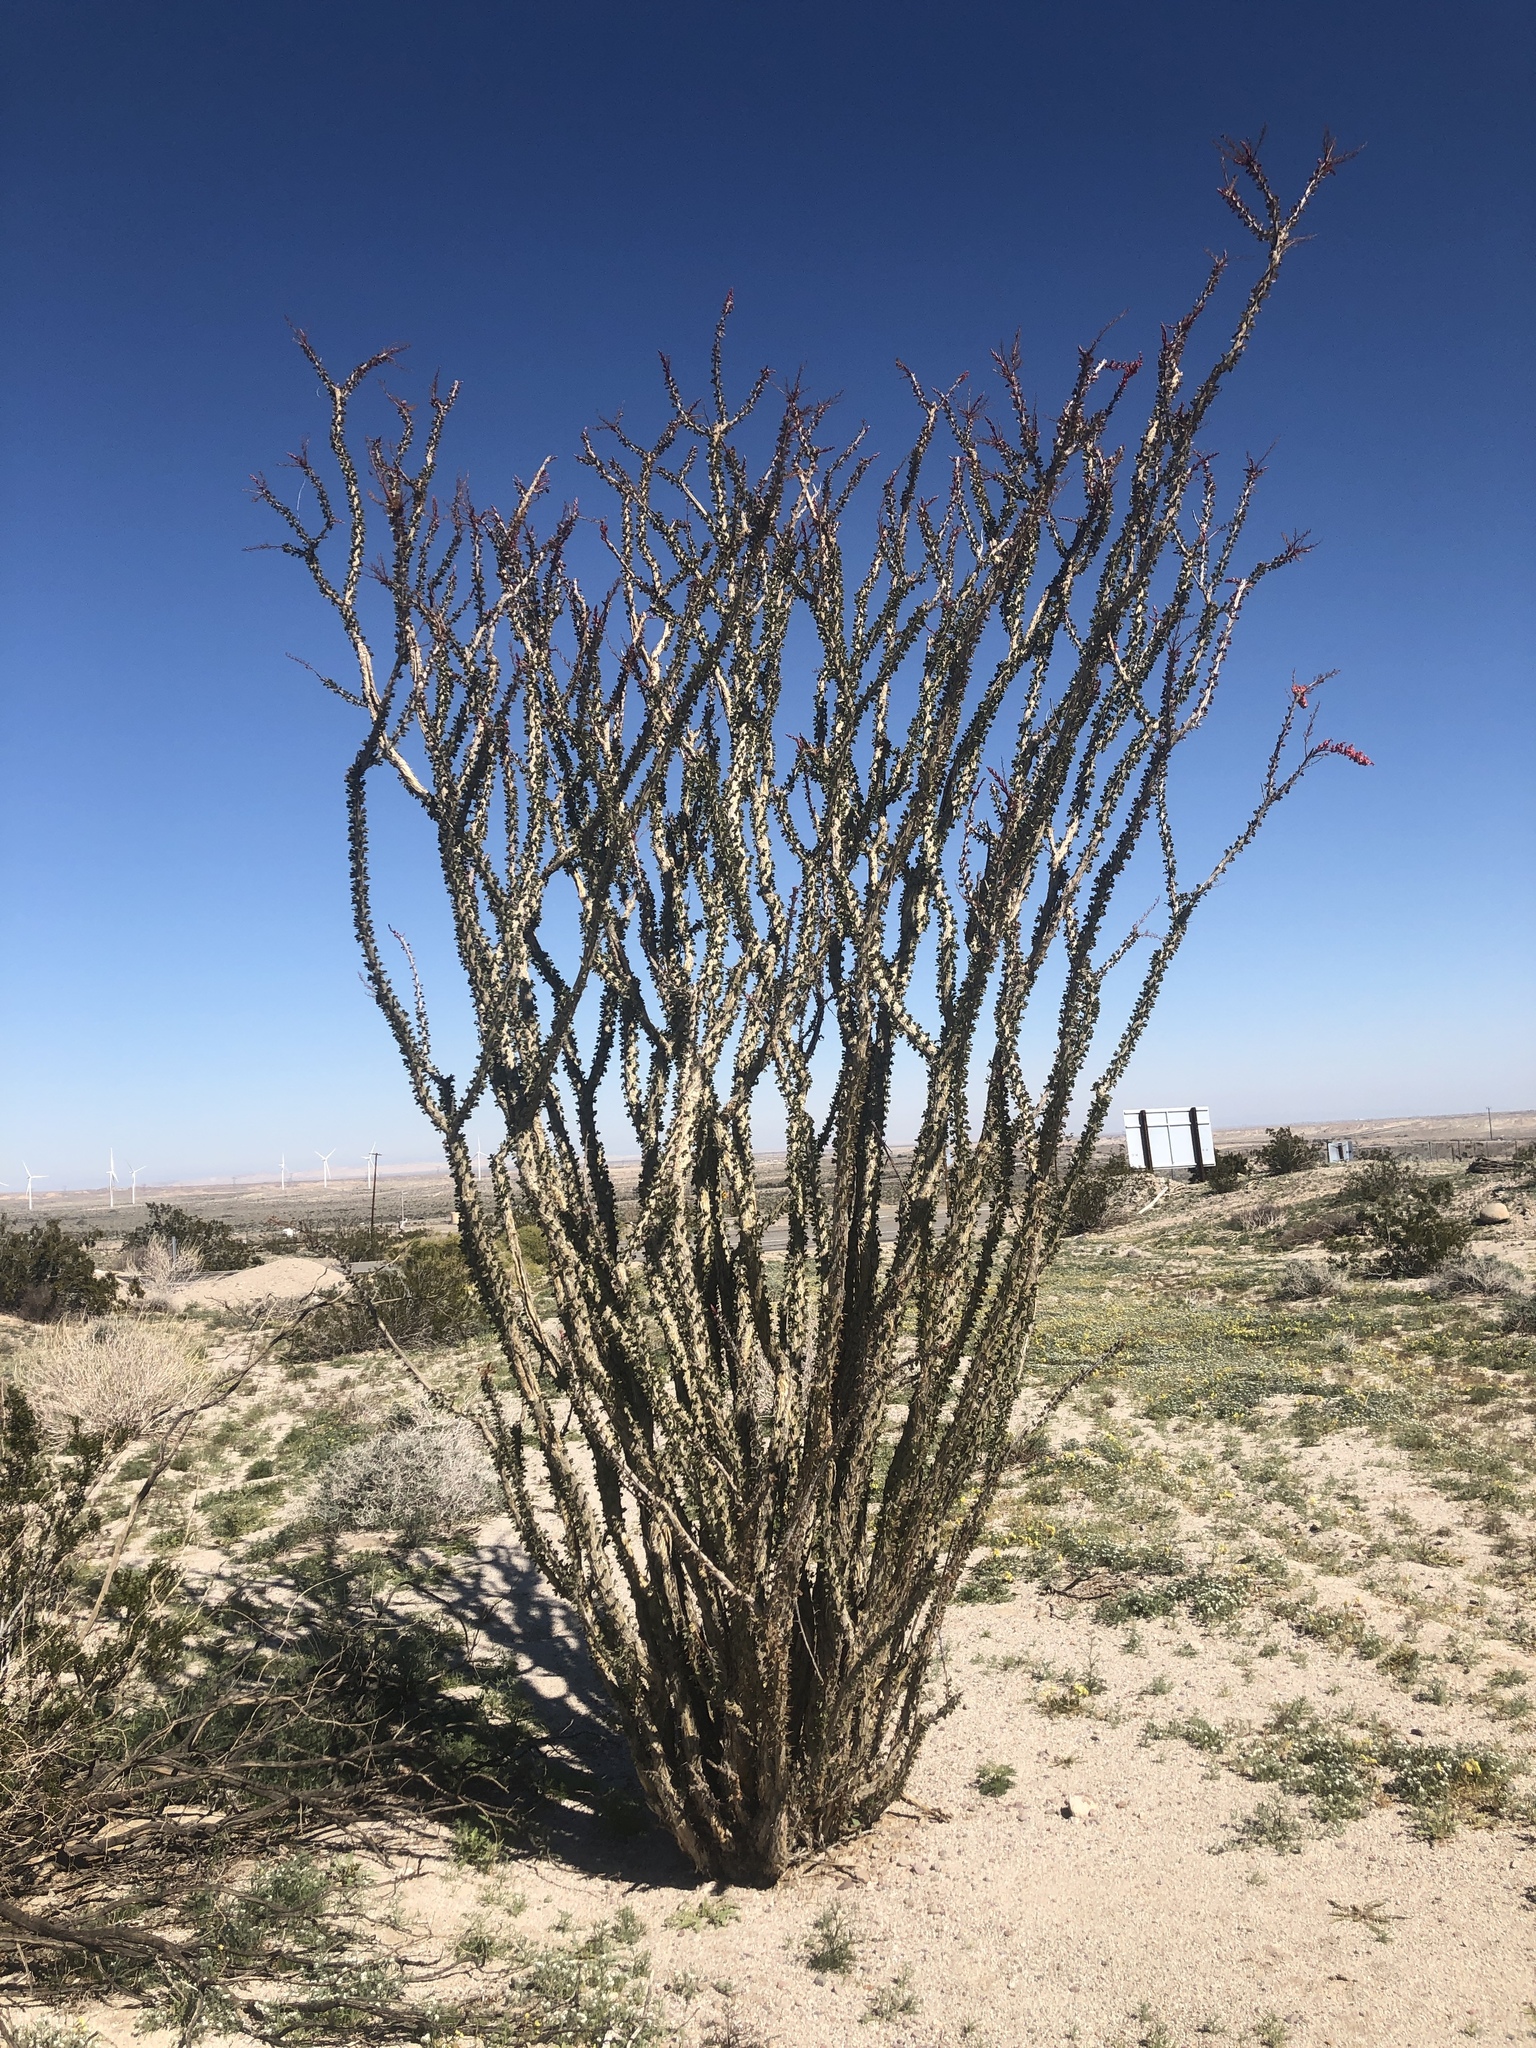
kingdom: Plantae
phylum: Tracheophyta
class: Magnoliopsida
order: Ericales
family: Fouquieriaceae
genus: Fouquieria
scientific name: Fouquieria splendens
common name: Vine-cactus
